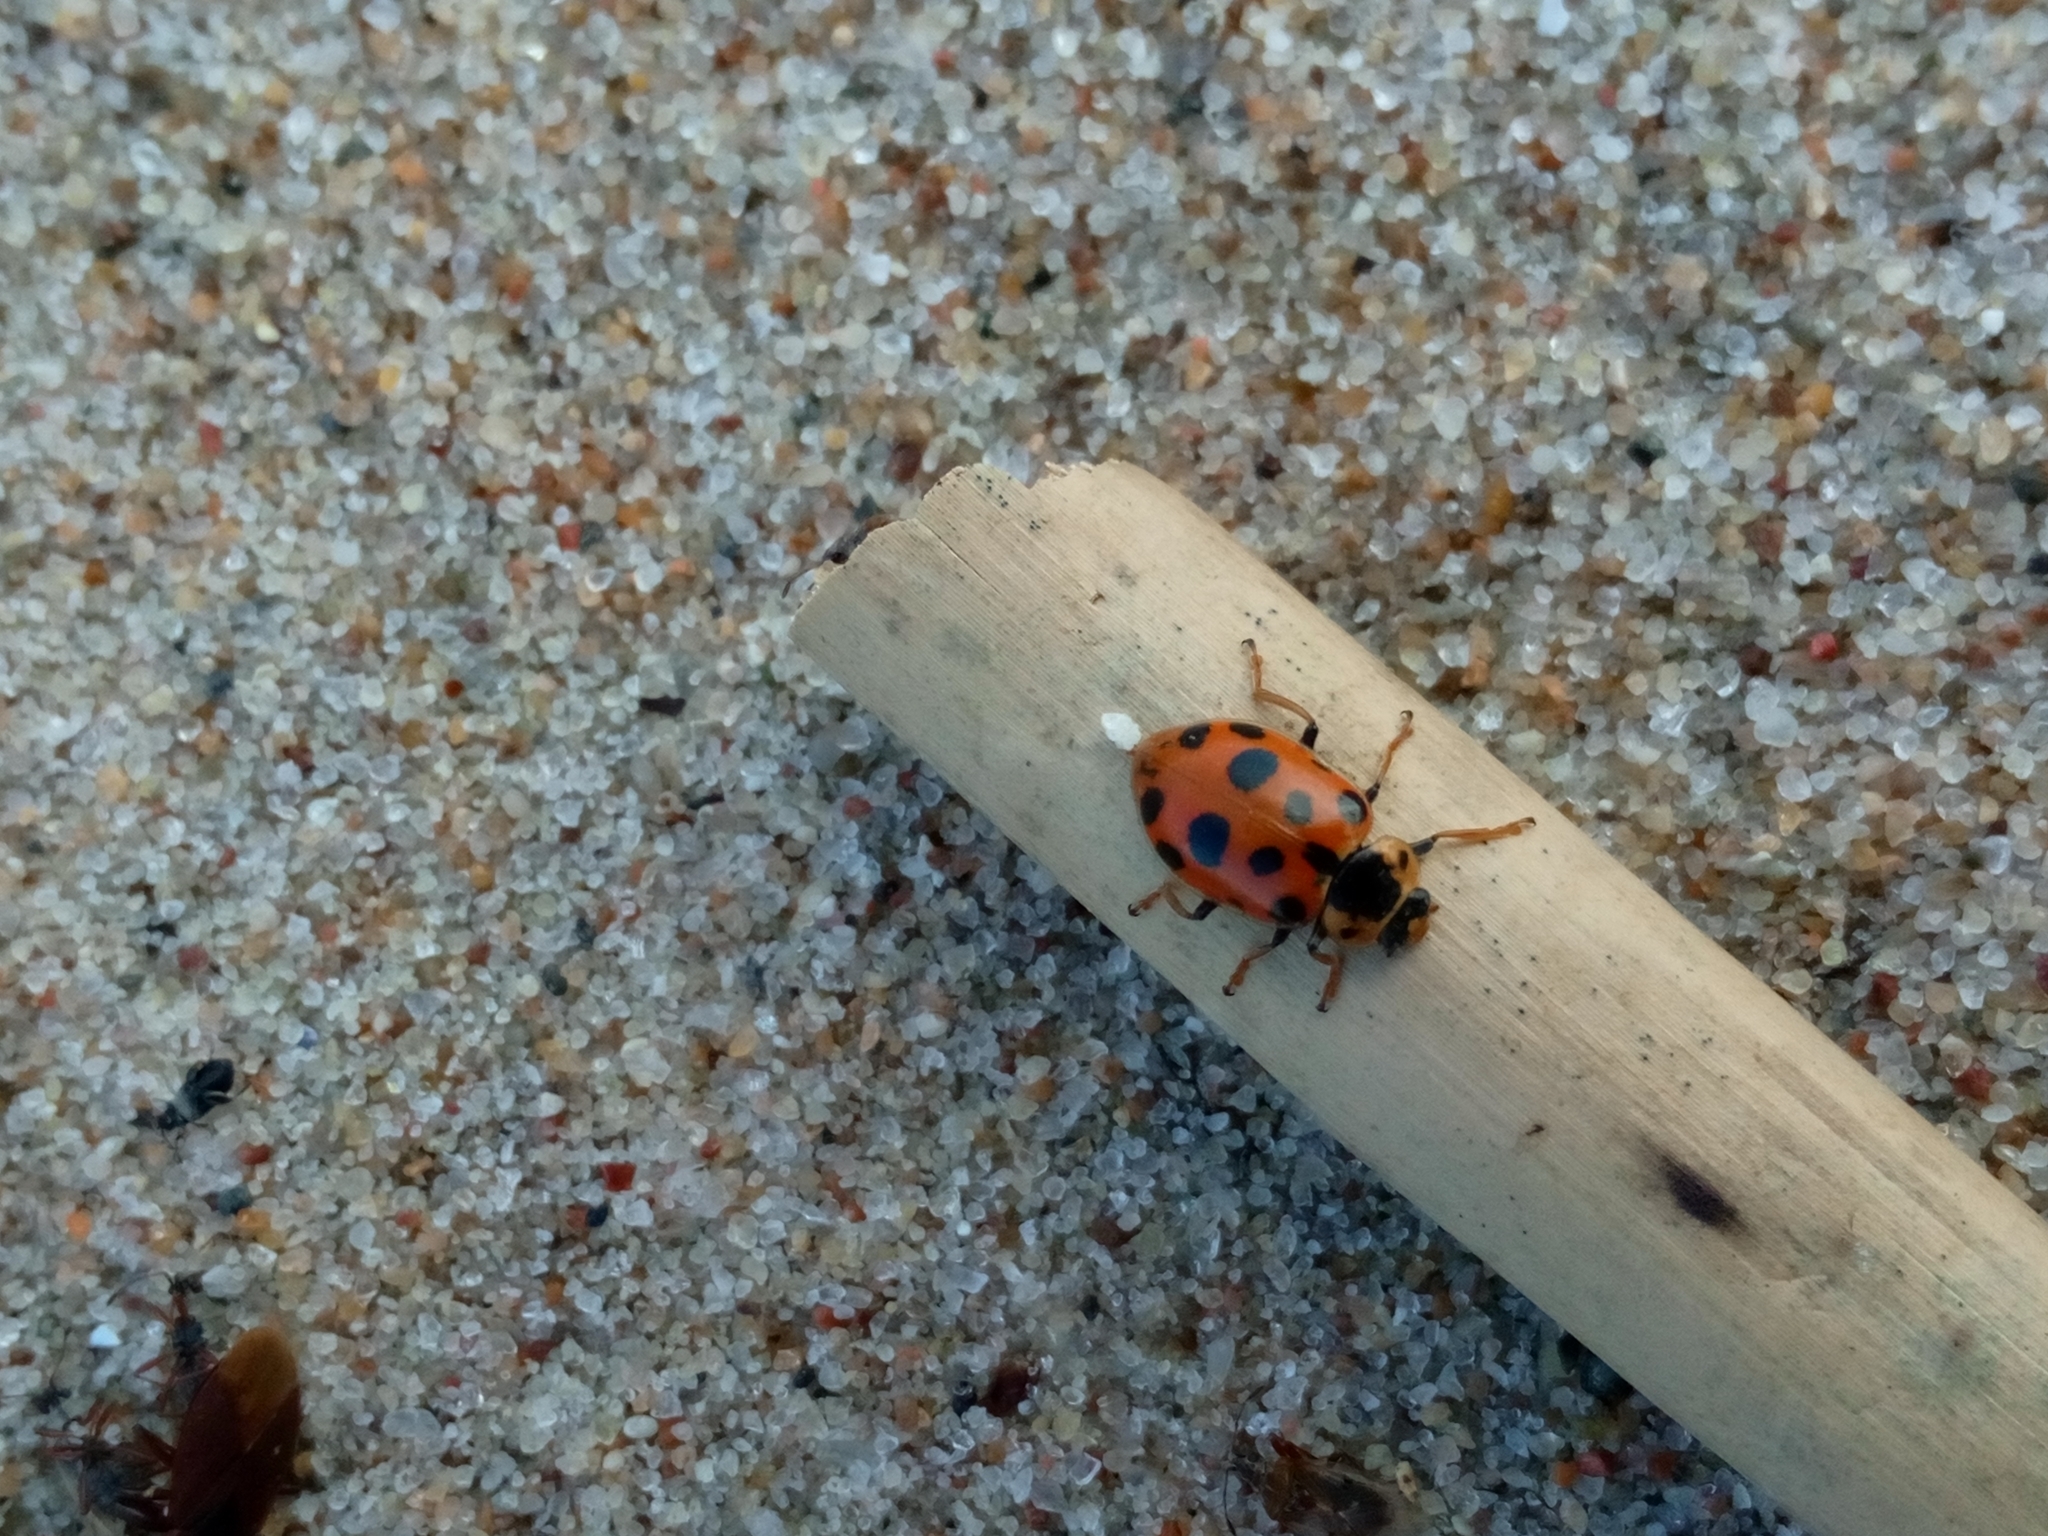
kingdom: Animalia
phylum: Arthropoda
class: Insecta
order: Coleoptera
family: Coccinellidae
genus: Hippodamia
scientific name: Hippodamia tredecimpunctata
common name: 13-spot ladybird
